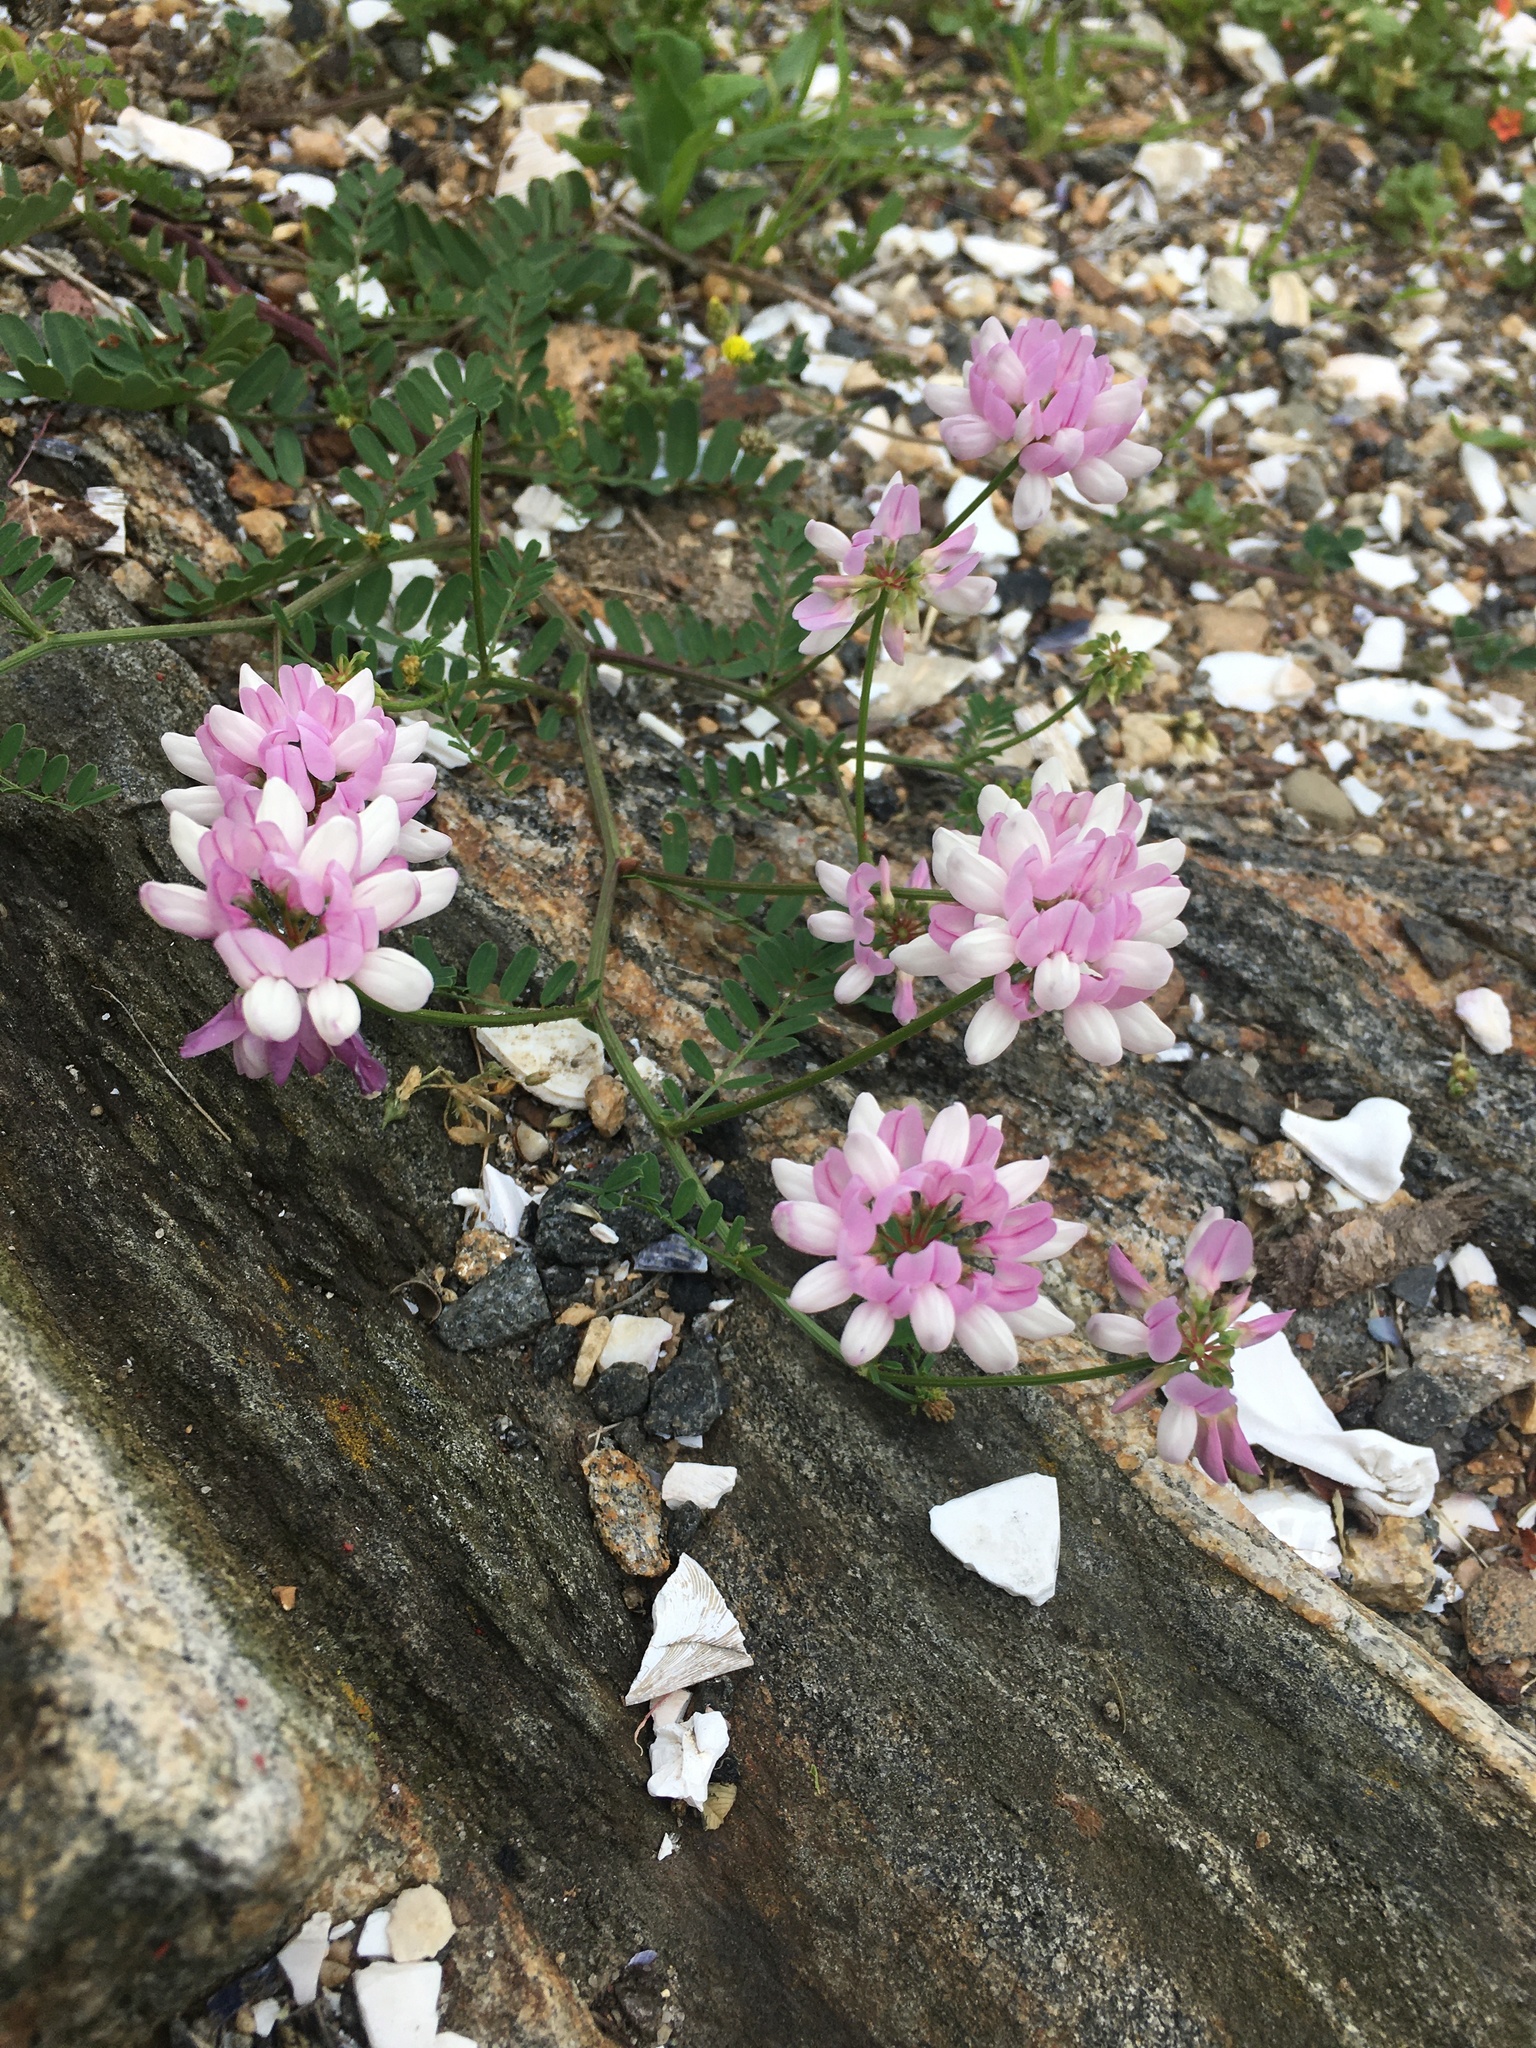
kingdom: Plantae
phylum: Tracheophyta
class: Magnoliopsida
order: Fabales
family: Fabaceae
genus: Coronilla
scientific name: Coronilla varia
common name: Crownvetch
